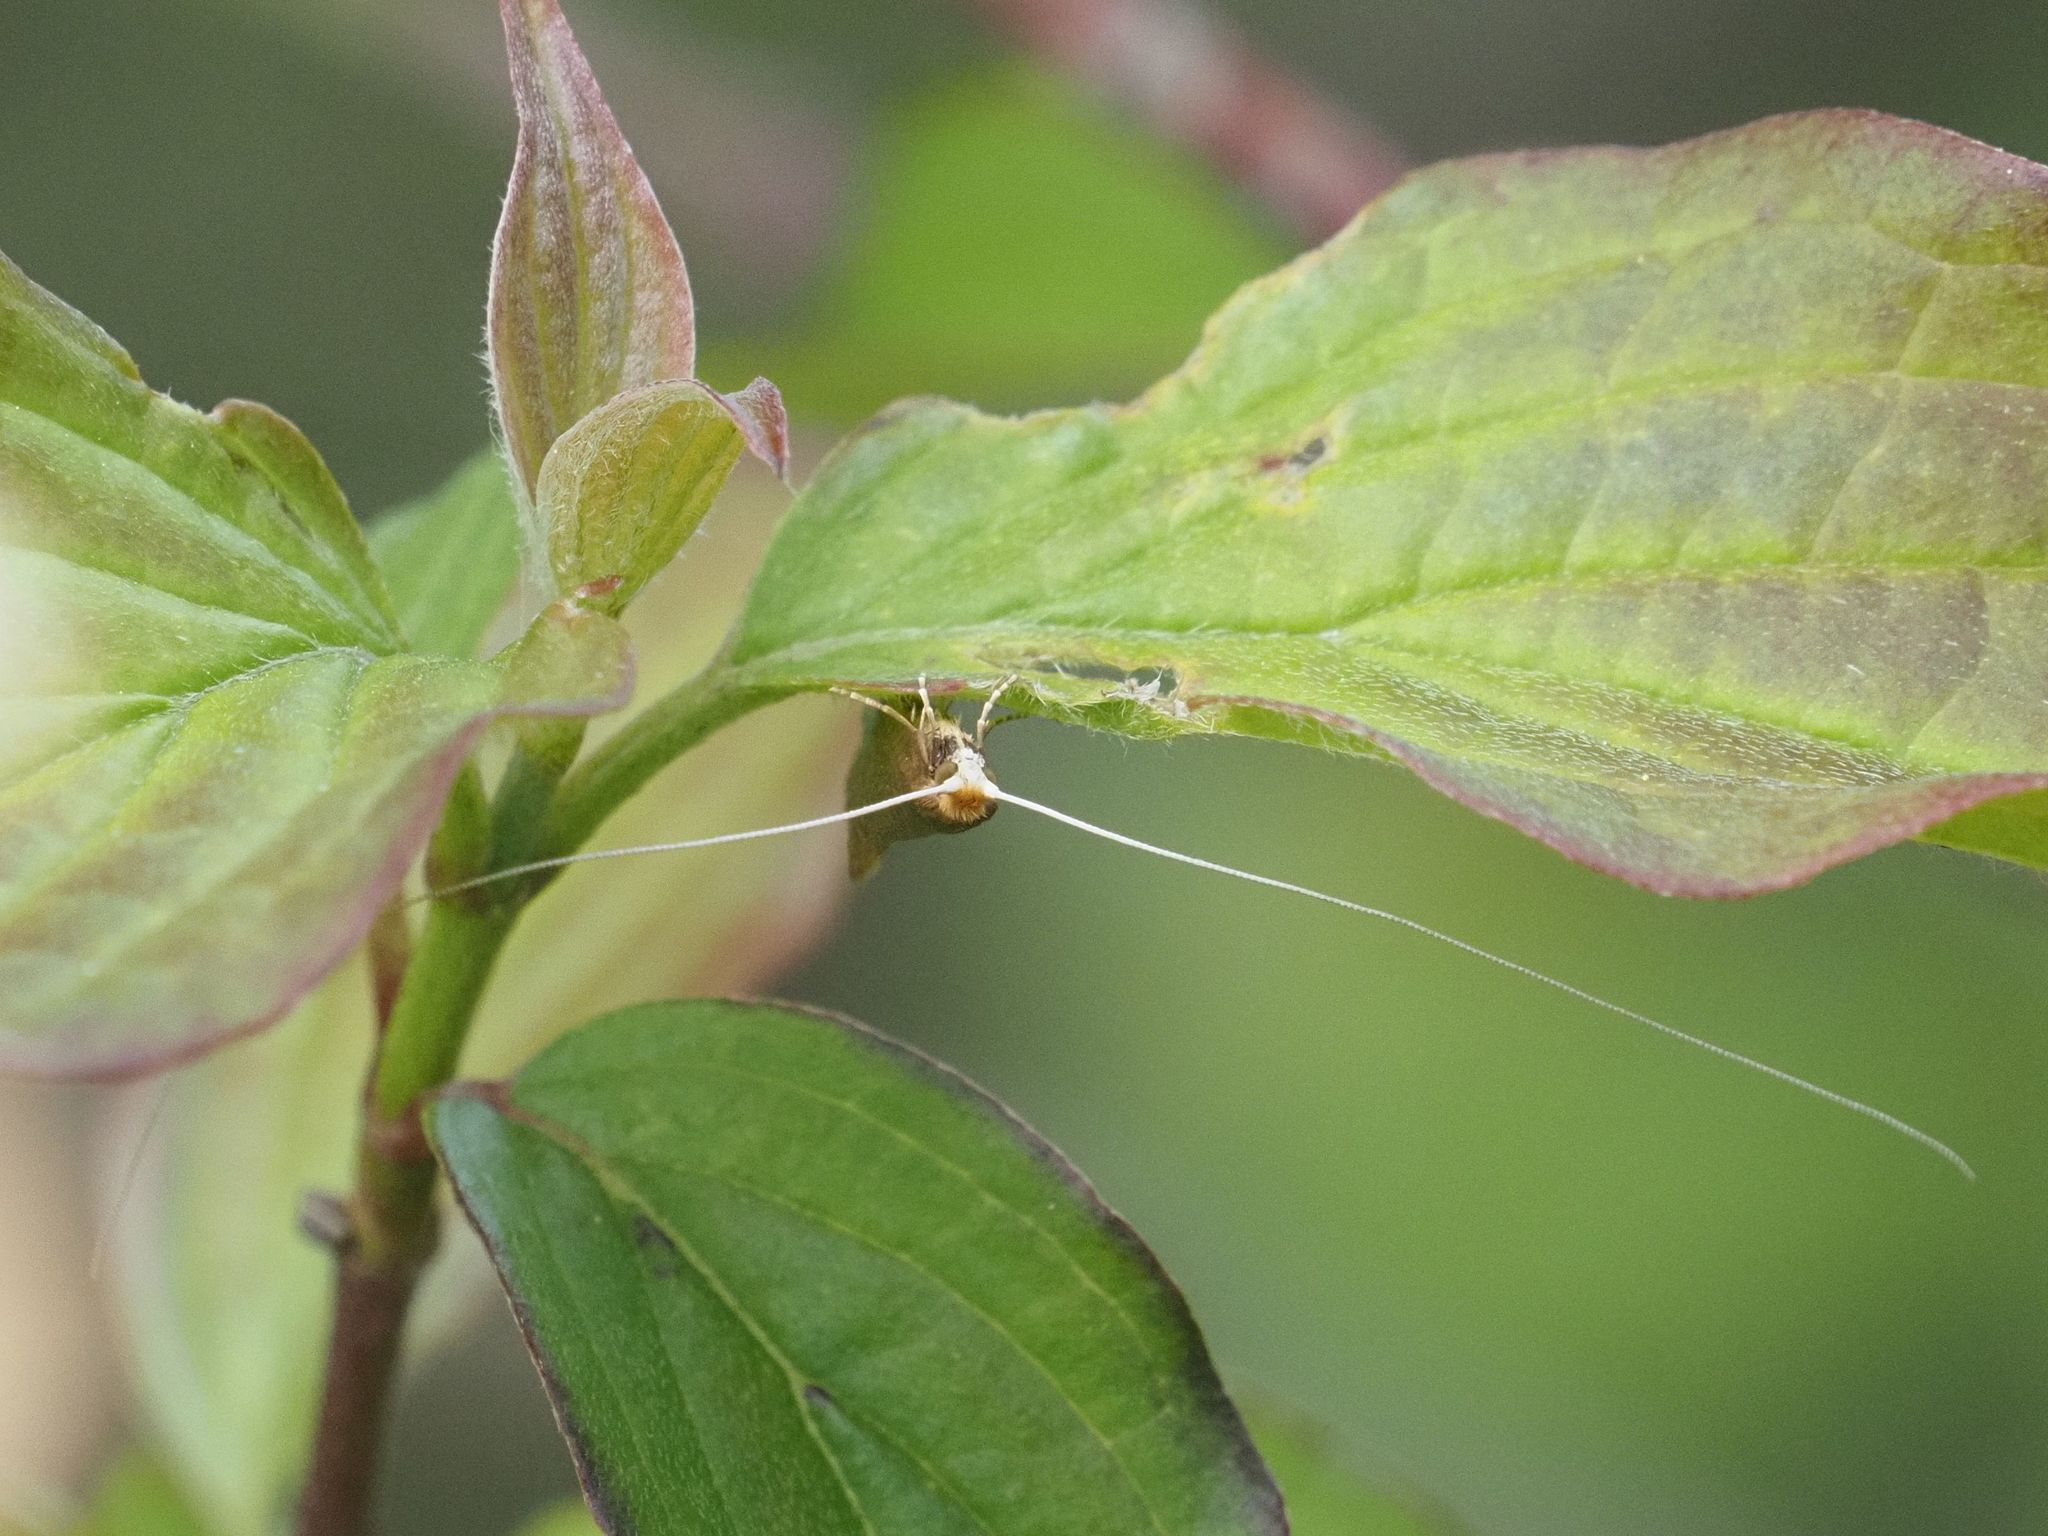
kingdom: Animalia
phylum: Arthropoda
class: Insecta
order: Lepidoptera
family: Adelidae
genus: Nematopogon
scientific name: Nematopogon swammerdamella
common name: Large long-horn
